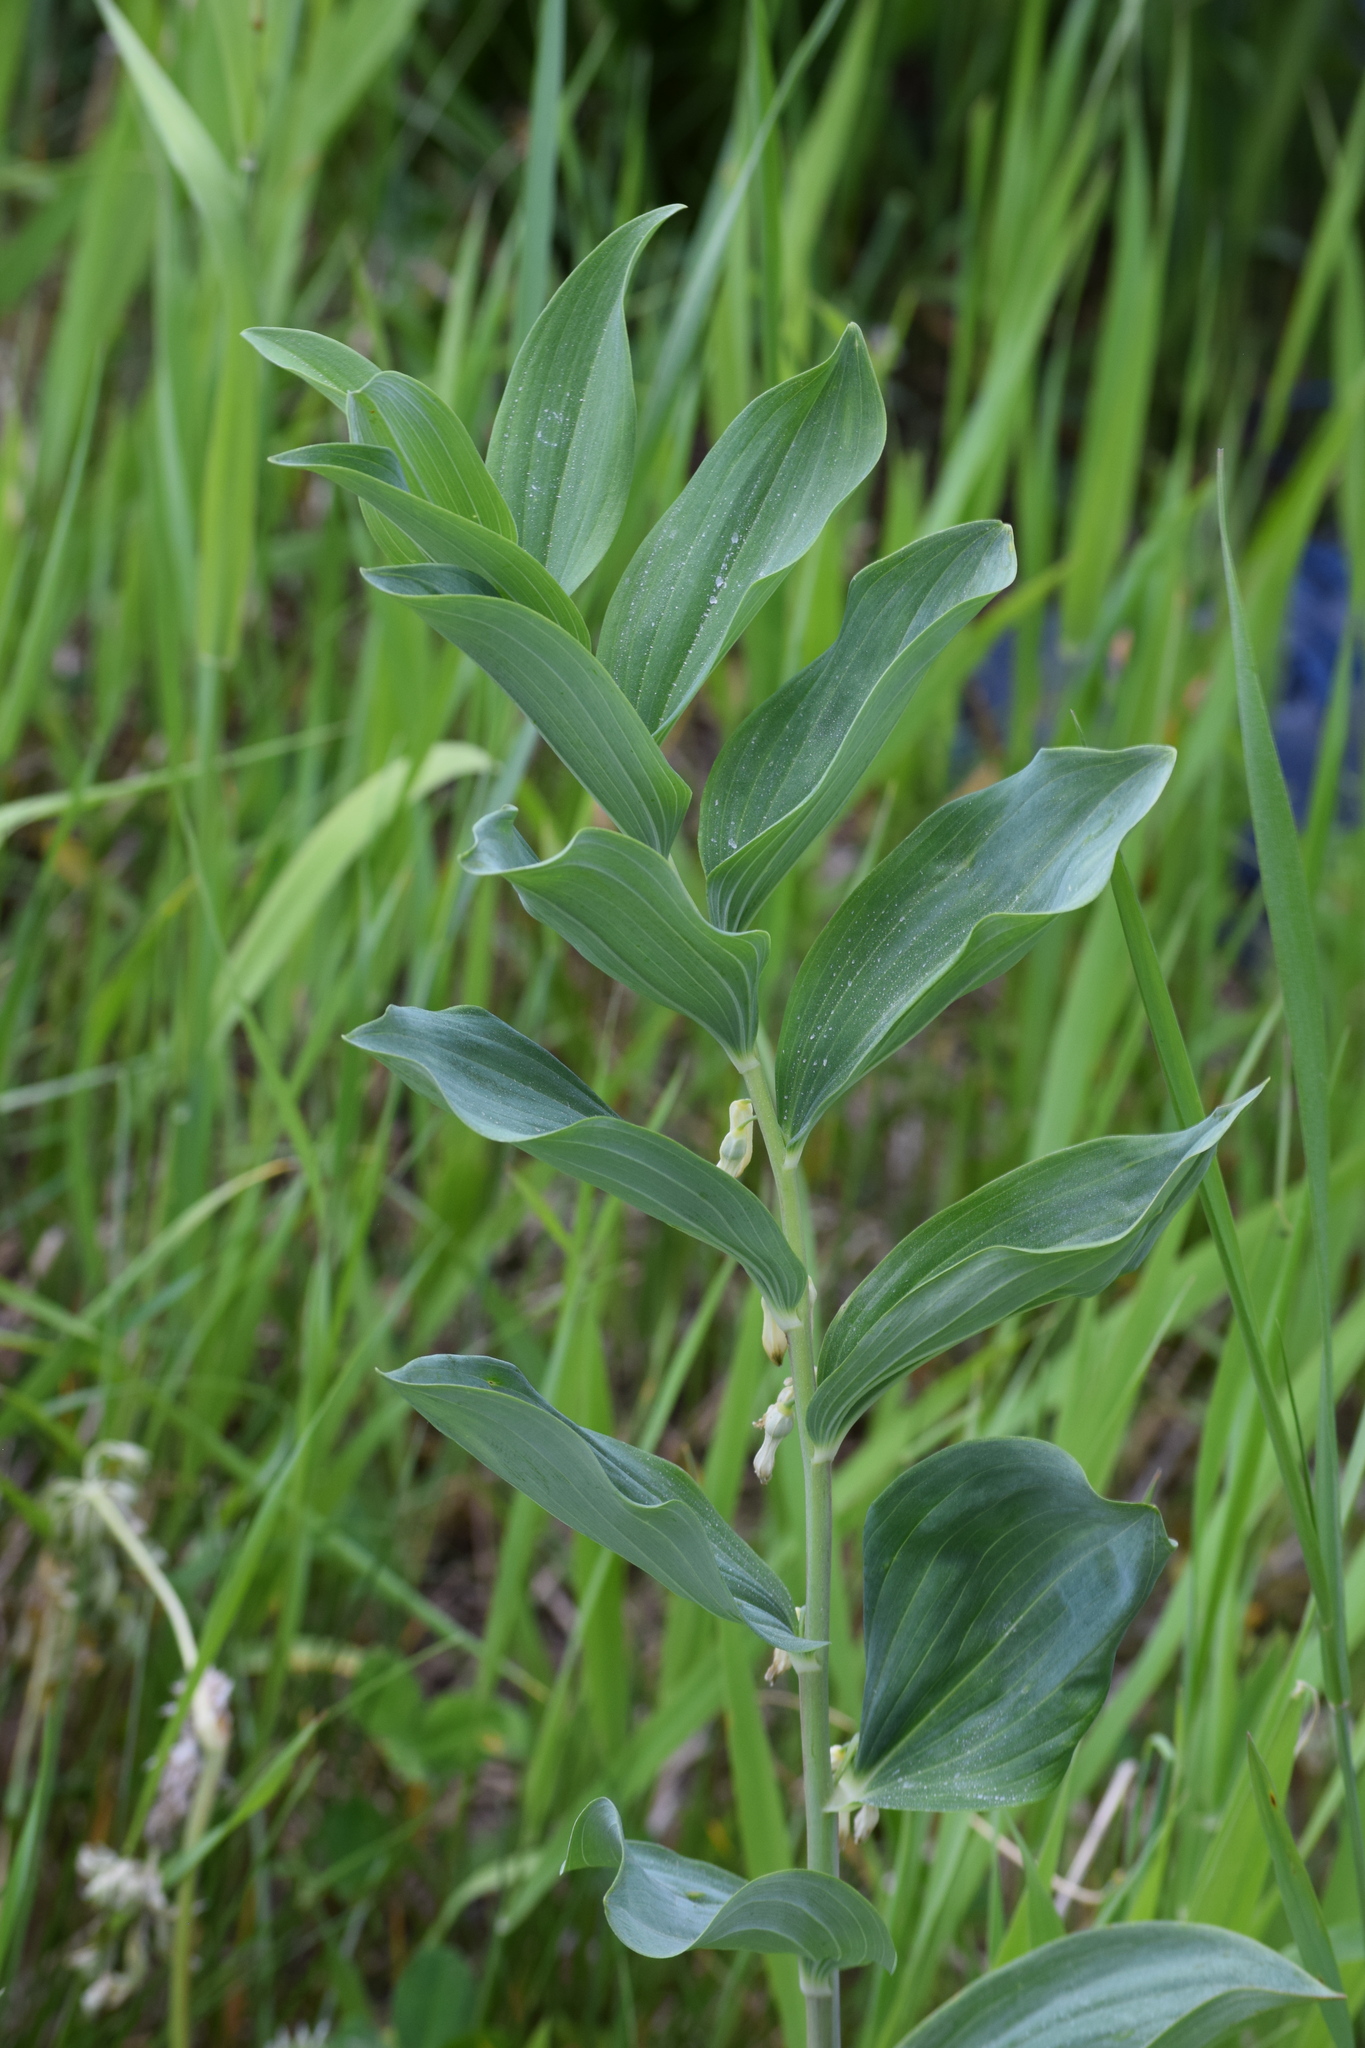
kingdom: Plantae
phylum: Tracheophyta
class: Liliopsida
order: Asparagales
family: Asparagaceae
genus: Polygonatum
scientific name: Polygonatum multiflorum
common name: Solomon's-seal
